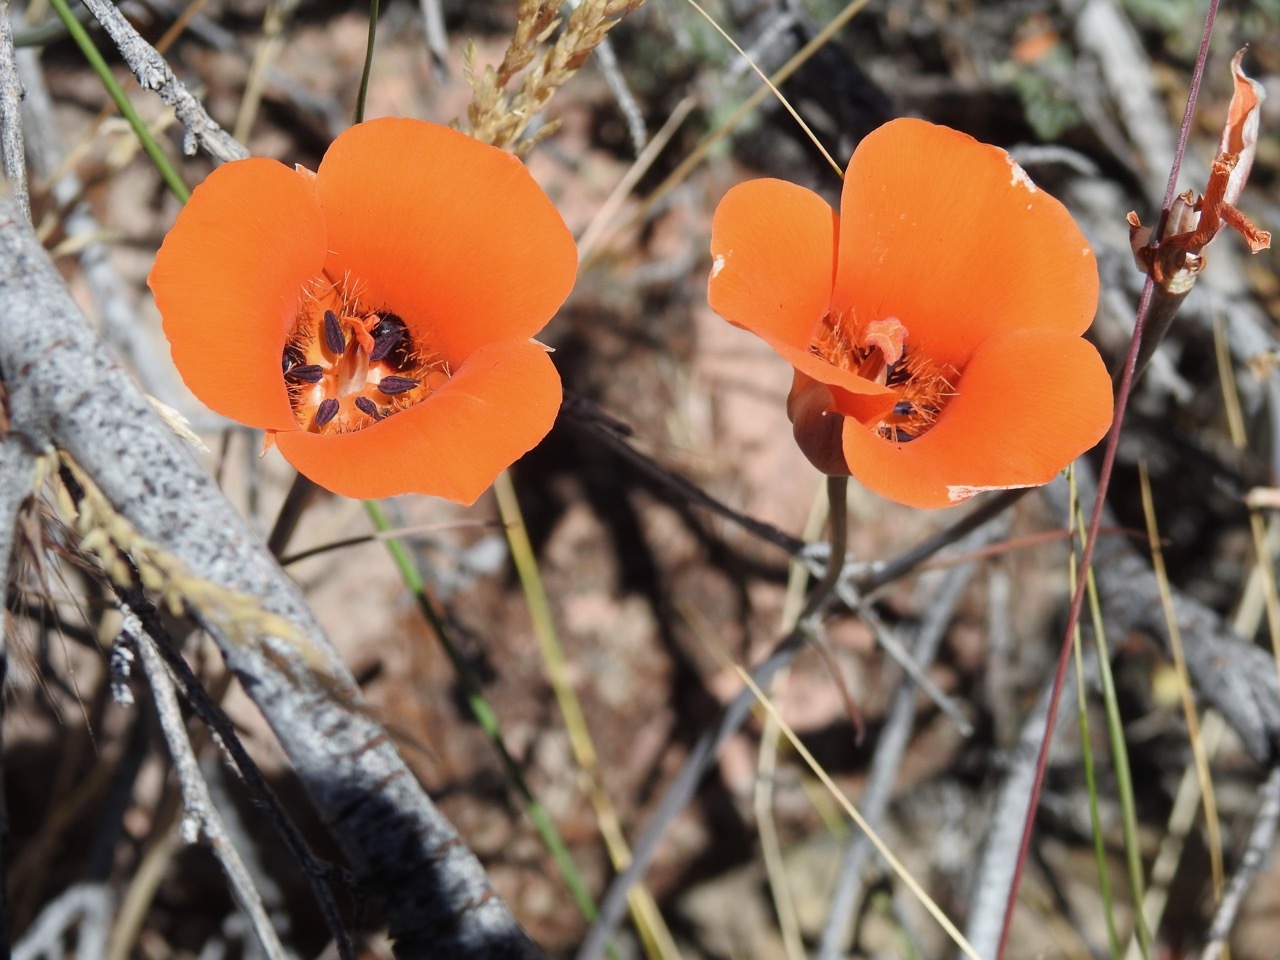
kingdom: Plantae
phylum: Tracheophyta
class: Liliopsida
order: Liliales
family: Liliaceae
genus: Calochortus
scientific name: Calochortus kennedyi
